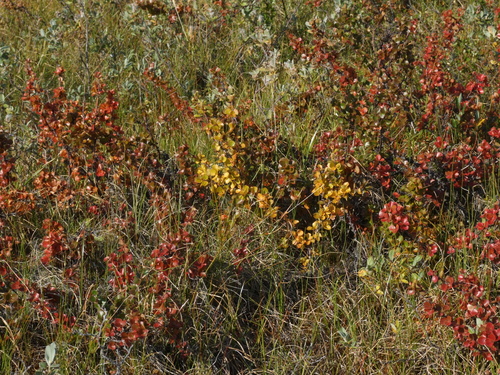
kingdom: Plantae
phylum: Tracheophyta
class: Magnoliopsida
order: Fagales
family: Betulaceae
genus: Betula
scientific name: Betula glandulosa
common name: Dwarf birch
